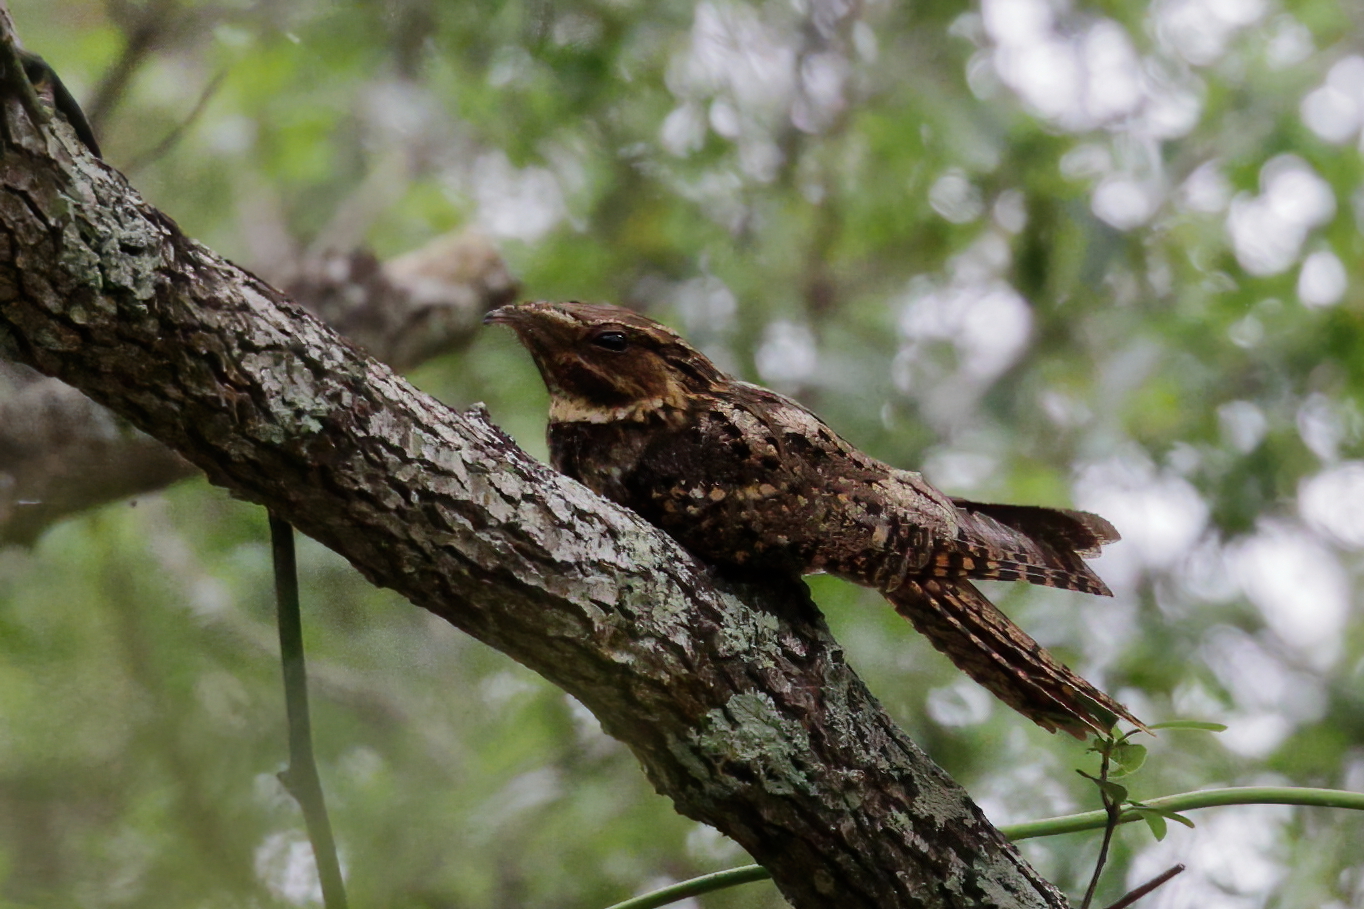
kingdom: Animalia
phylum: Chordata
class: Aves
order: Caprimulgiformes
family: Caprimulgidae
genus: Antrostomus
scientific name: Antrostomus carolinensis
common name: Chuck-will's-widow
